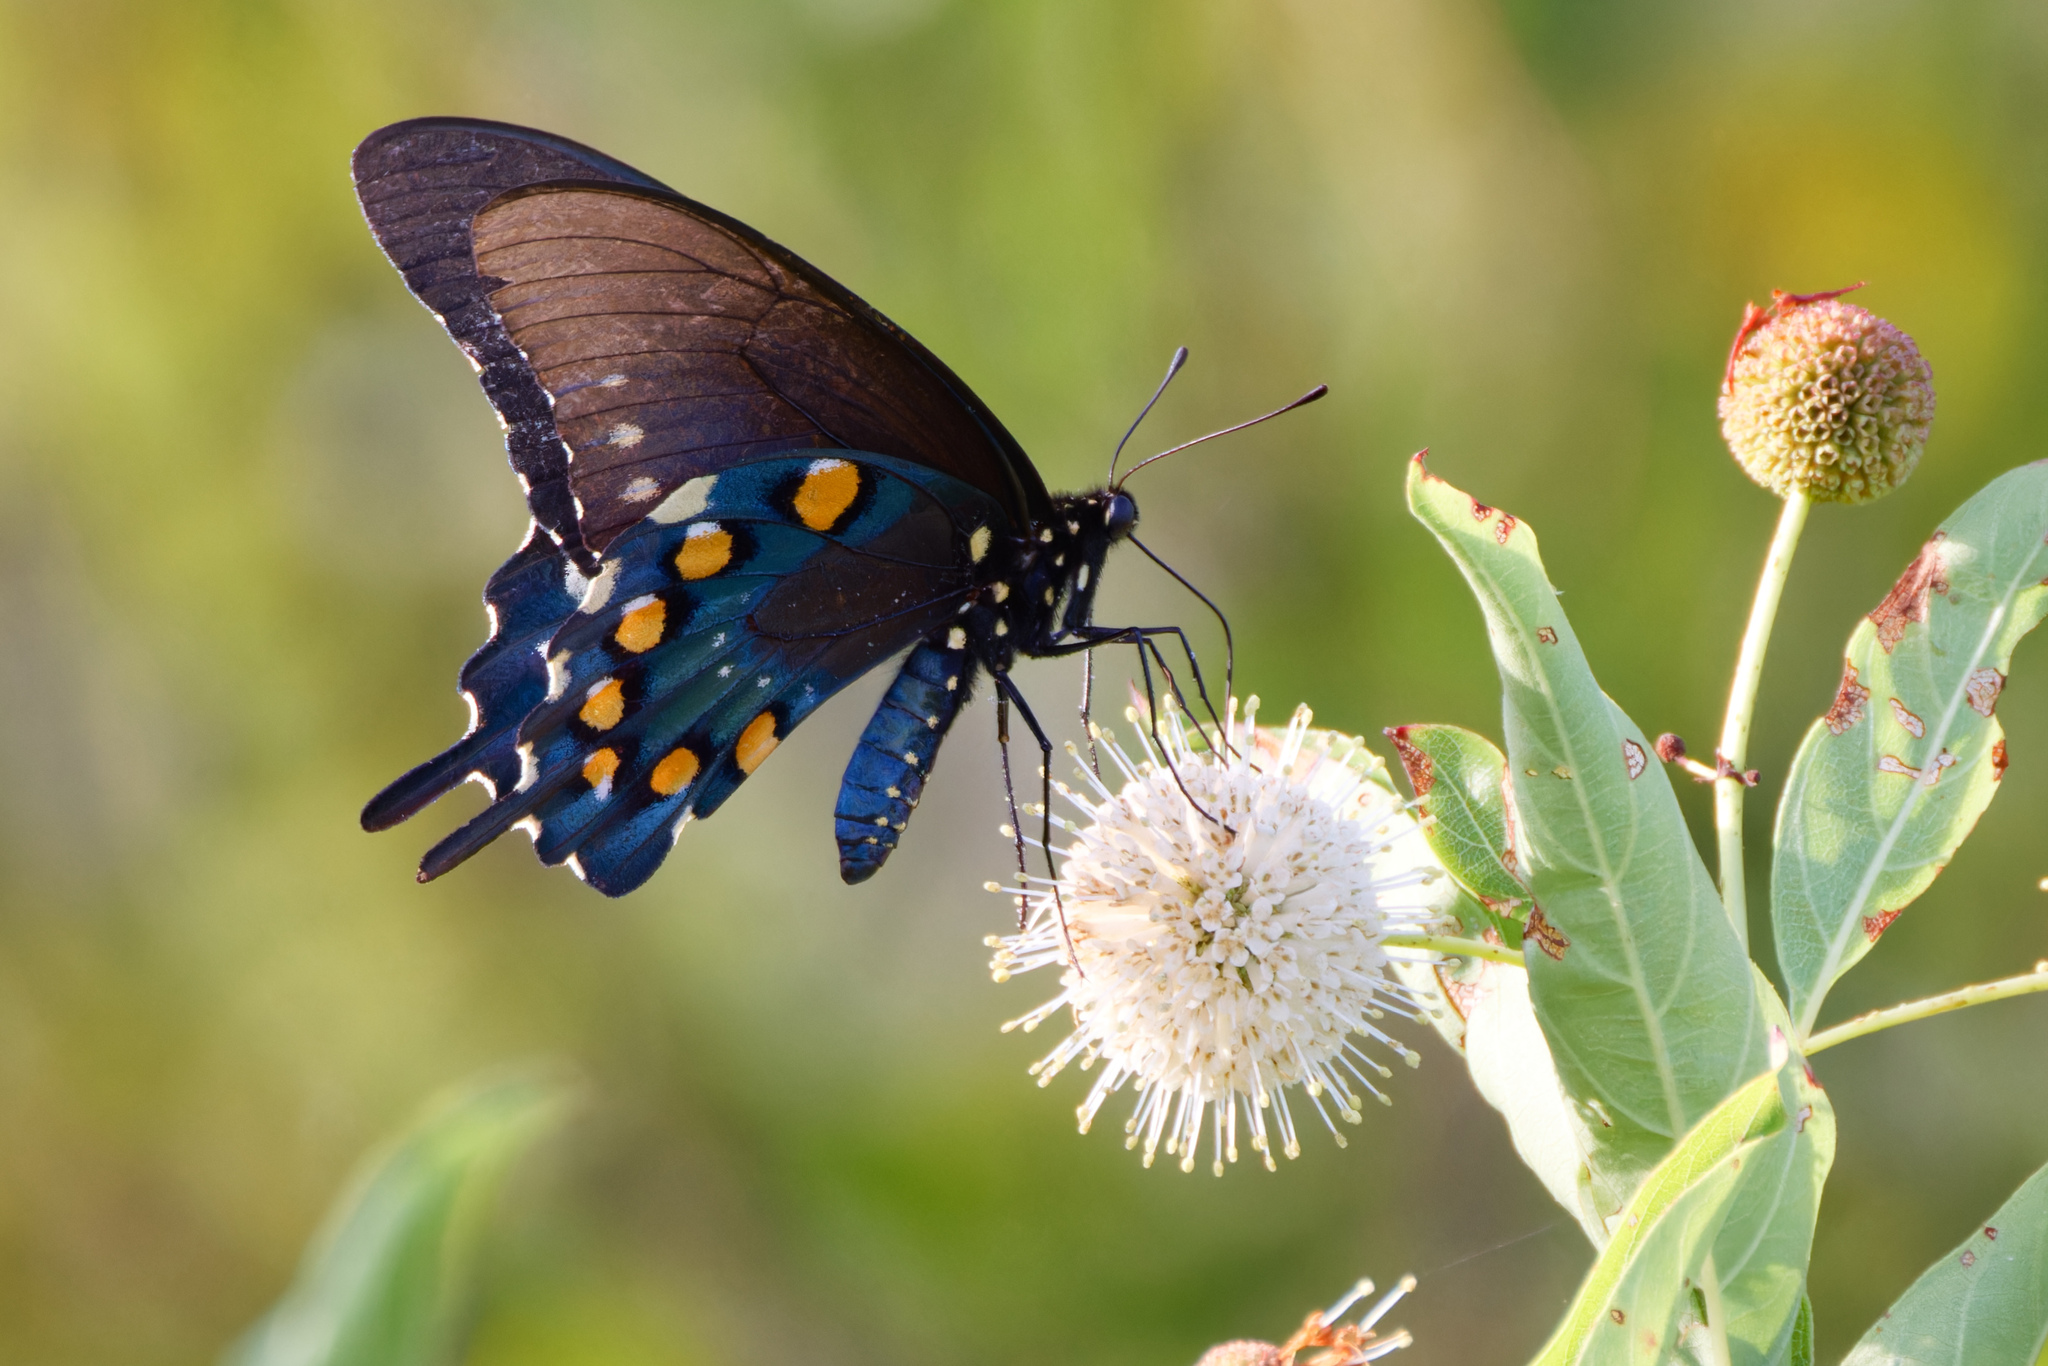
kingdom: Animalia
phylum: Arthropoda
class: Insecta
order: Lepidoptera
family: Papilionidae
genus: Battus
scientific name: Battus philenor
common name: Pipevine swallowtail
